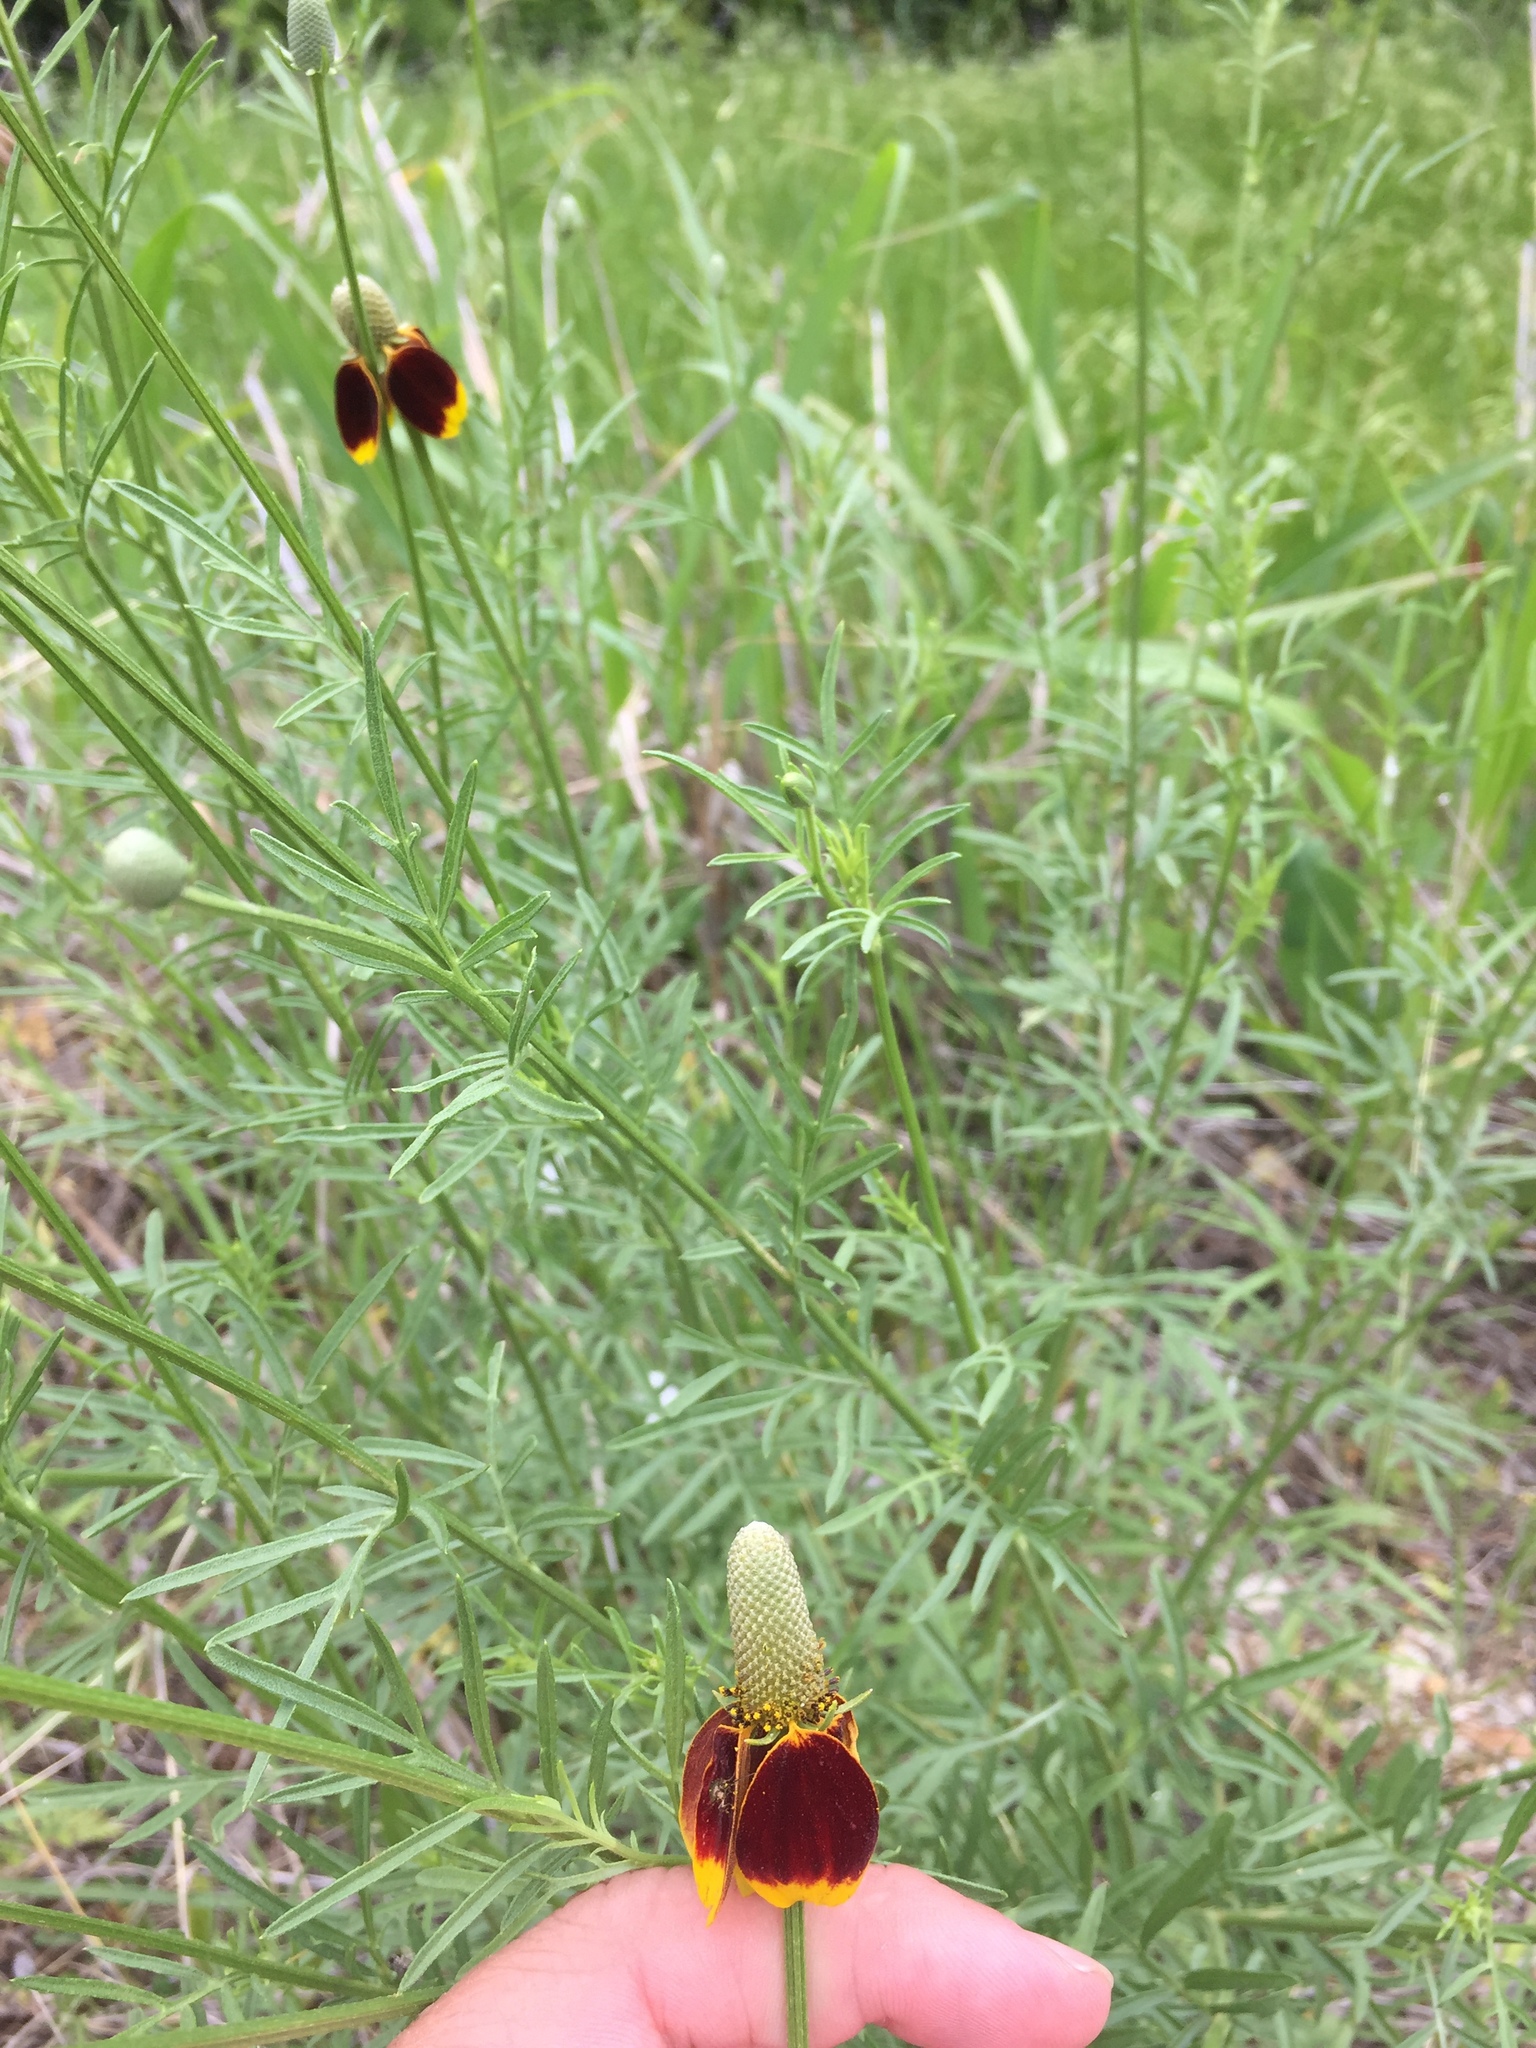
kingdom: Plantae
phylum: Tracheophyta
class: Magnoliopsida
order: Asterales
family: Asteraceae
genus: Ratibida
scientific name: Ratibida columnifera
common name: Prairie coneflower
